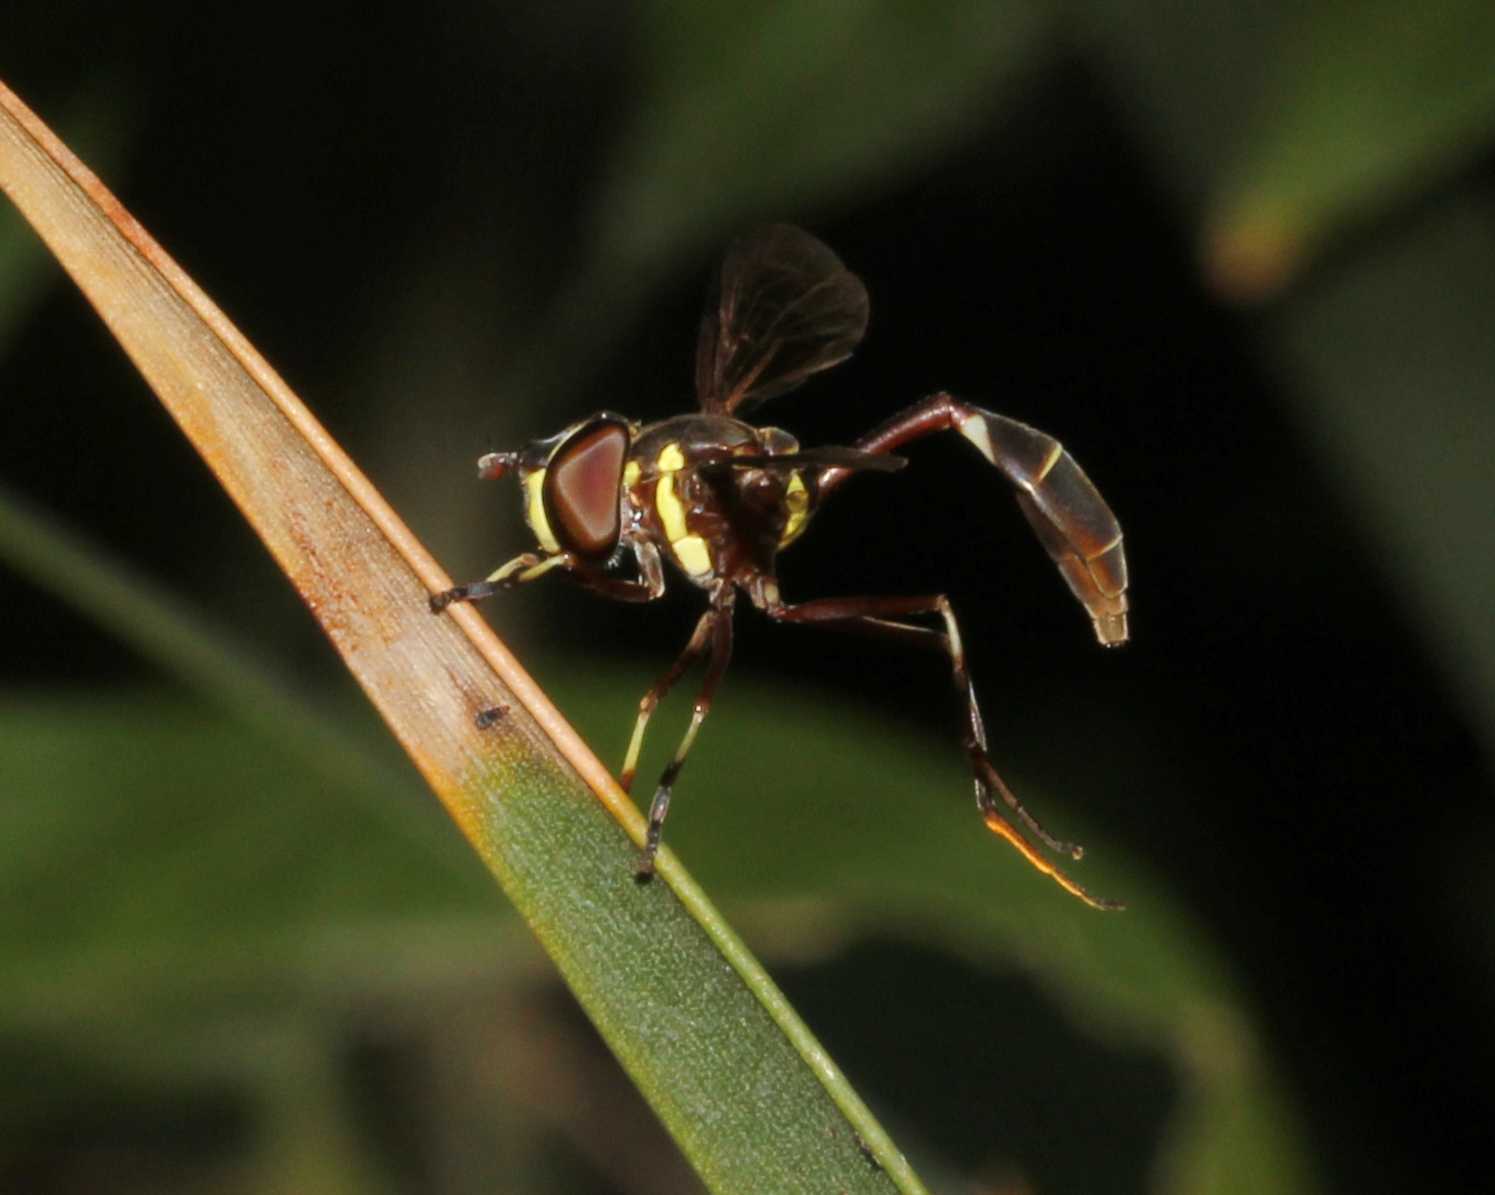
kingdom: Animalia
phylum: Arthropoda
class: Insecta
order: Diptera
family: Syrphidae
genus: Salpingogaster
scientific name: Salpingogaster nigra
